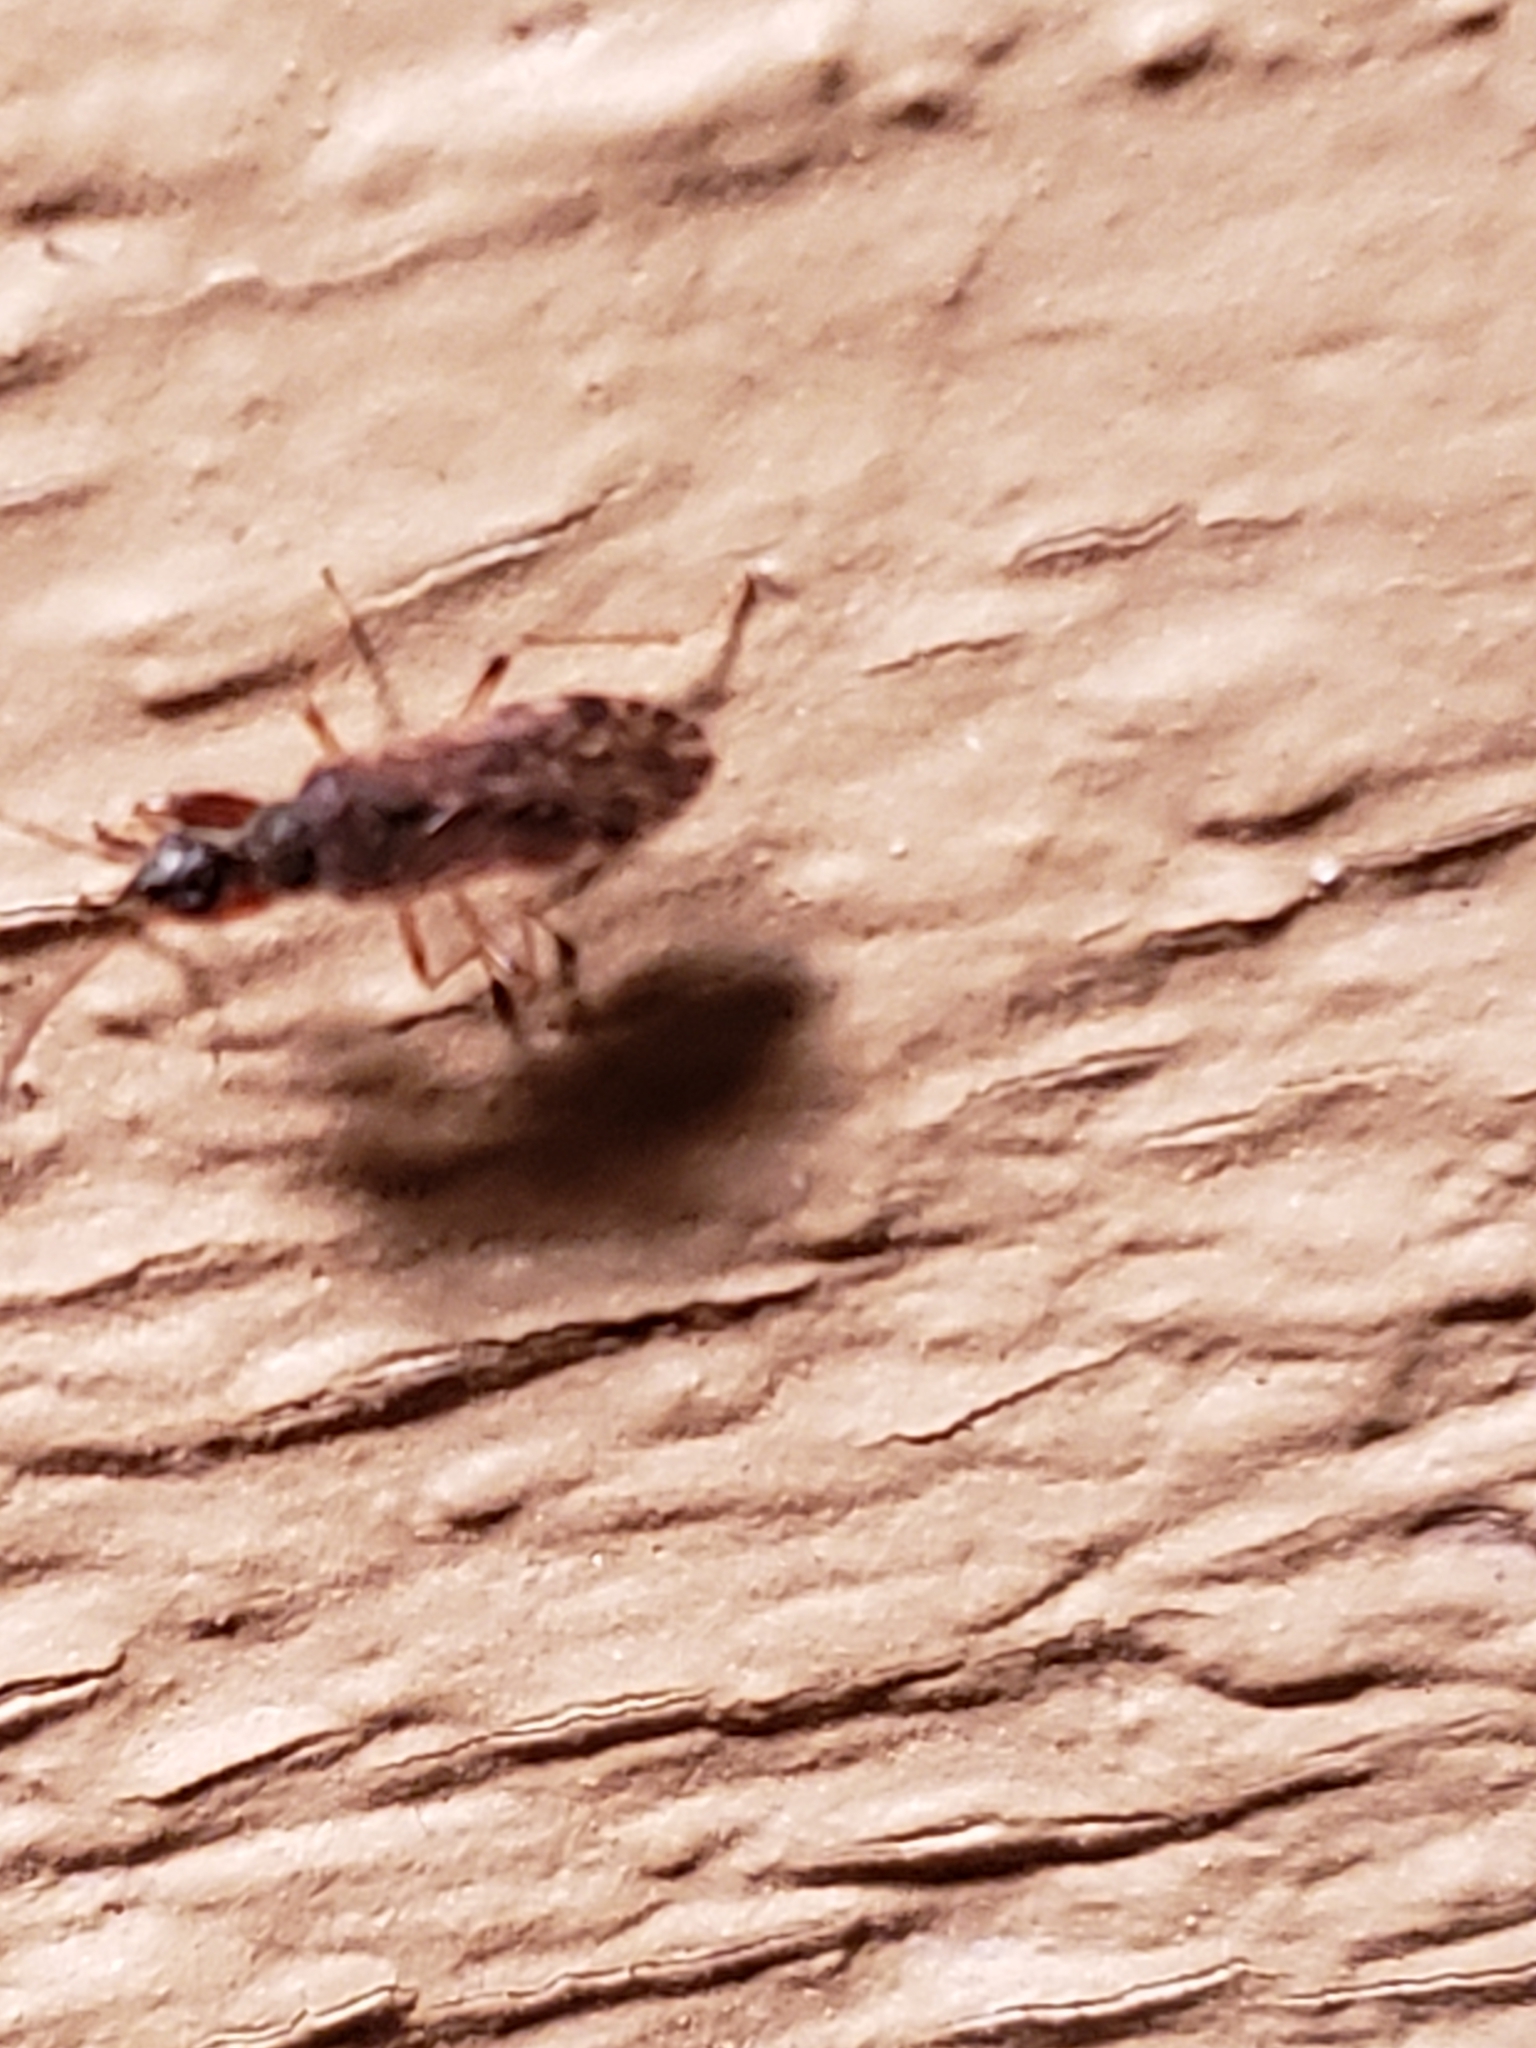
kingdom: Animalia
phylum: Arthropoda
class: Insecta
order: Hemiptera
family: Rhyparochromidae
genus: Heraeus
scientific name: Heraeus plebejus
